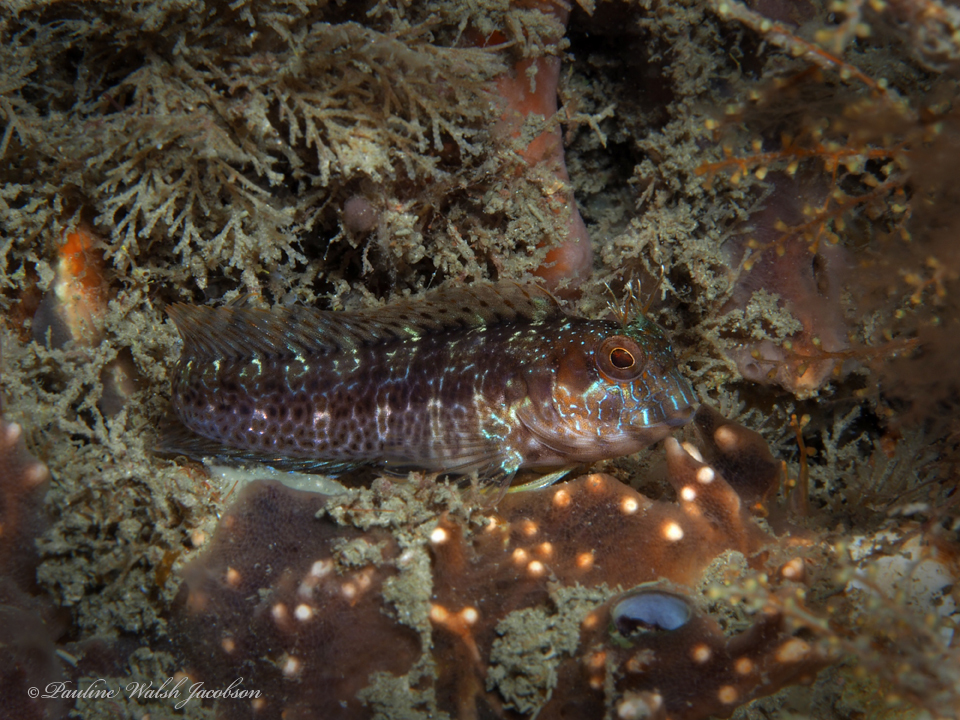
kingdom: Animalia
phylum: Chordata
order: Perciformes
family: Blenniidae
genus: Parablennius
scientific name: Parablennius marmoreus
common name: Seaweed blenny
